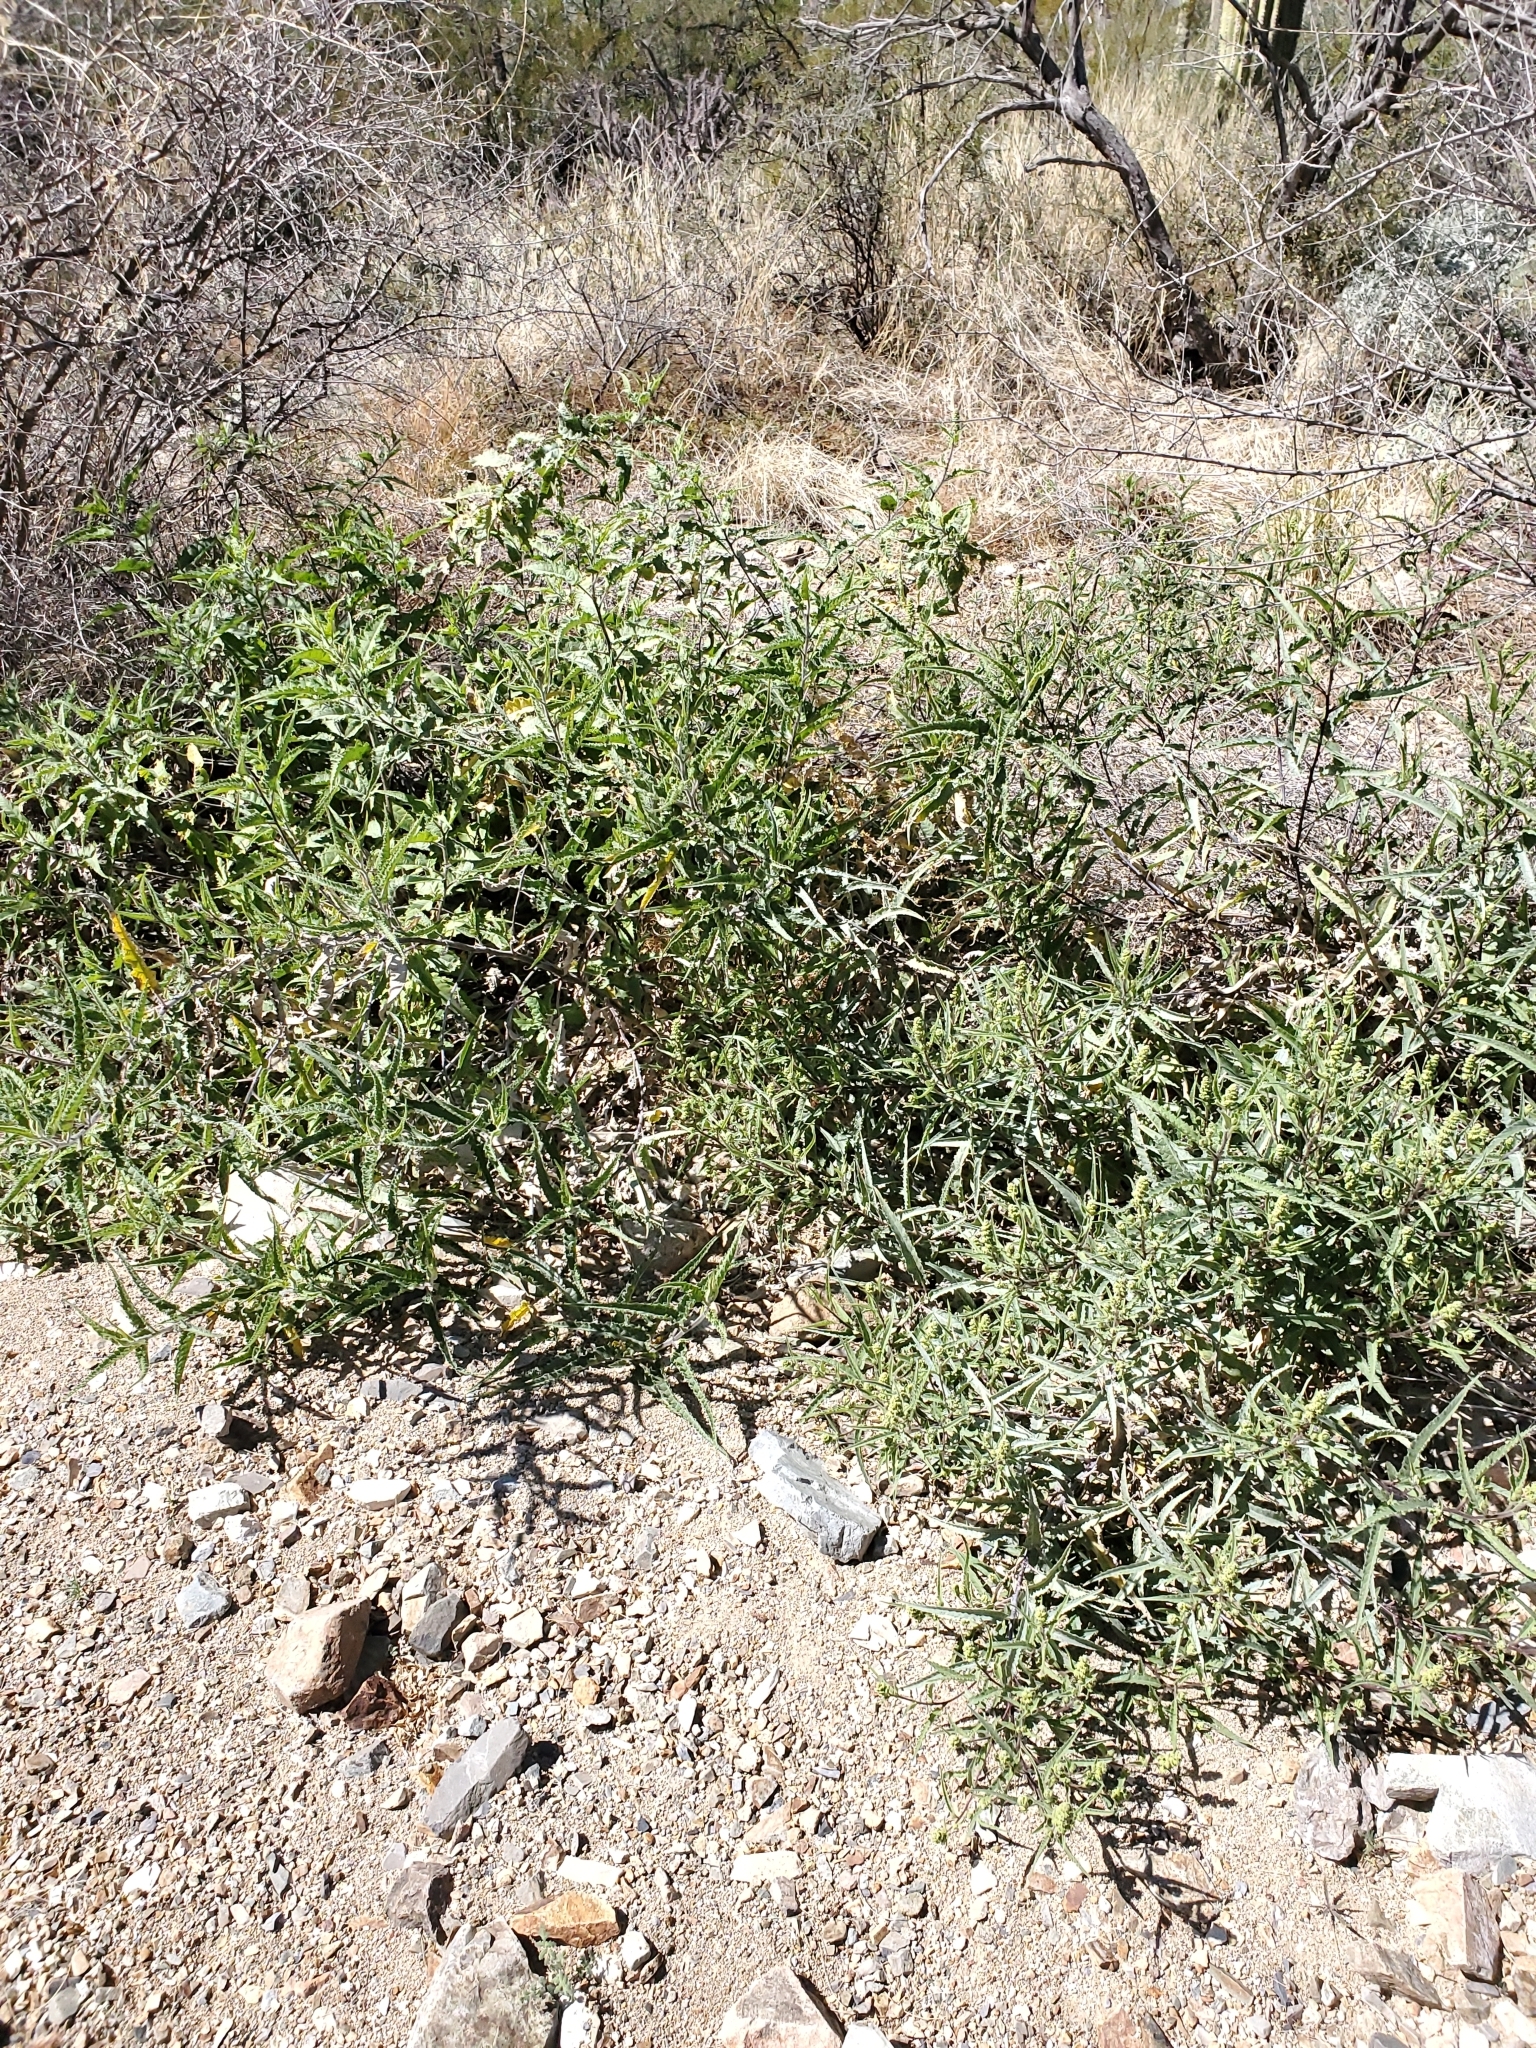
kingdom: Plantae
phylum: Tracheophyta
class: Magnoliopsida
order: Asterales
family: Asteraceae
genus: Ambrosia
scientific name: Ambrosia ambrosioides
